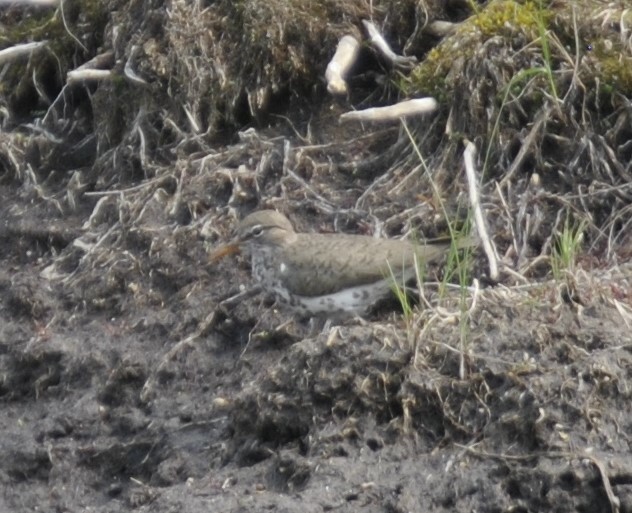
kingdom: Animalia
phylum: Chordata
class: Aves
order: Charadriiformes
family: Scolopacidae
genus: Actitis
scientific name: Actitis macularius
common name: Spotted sandpiper
